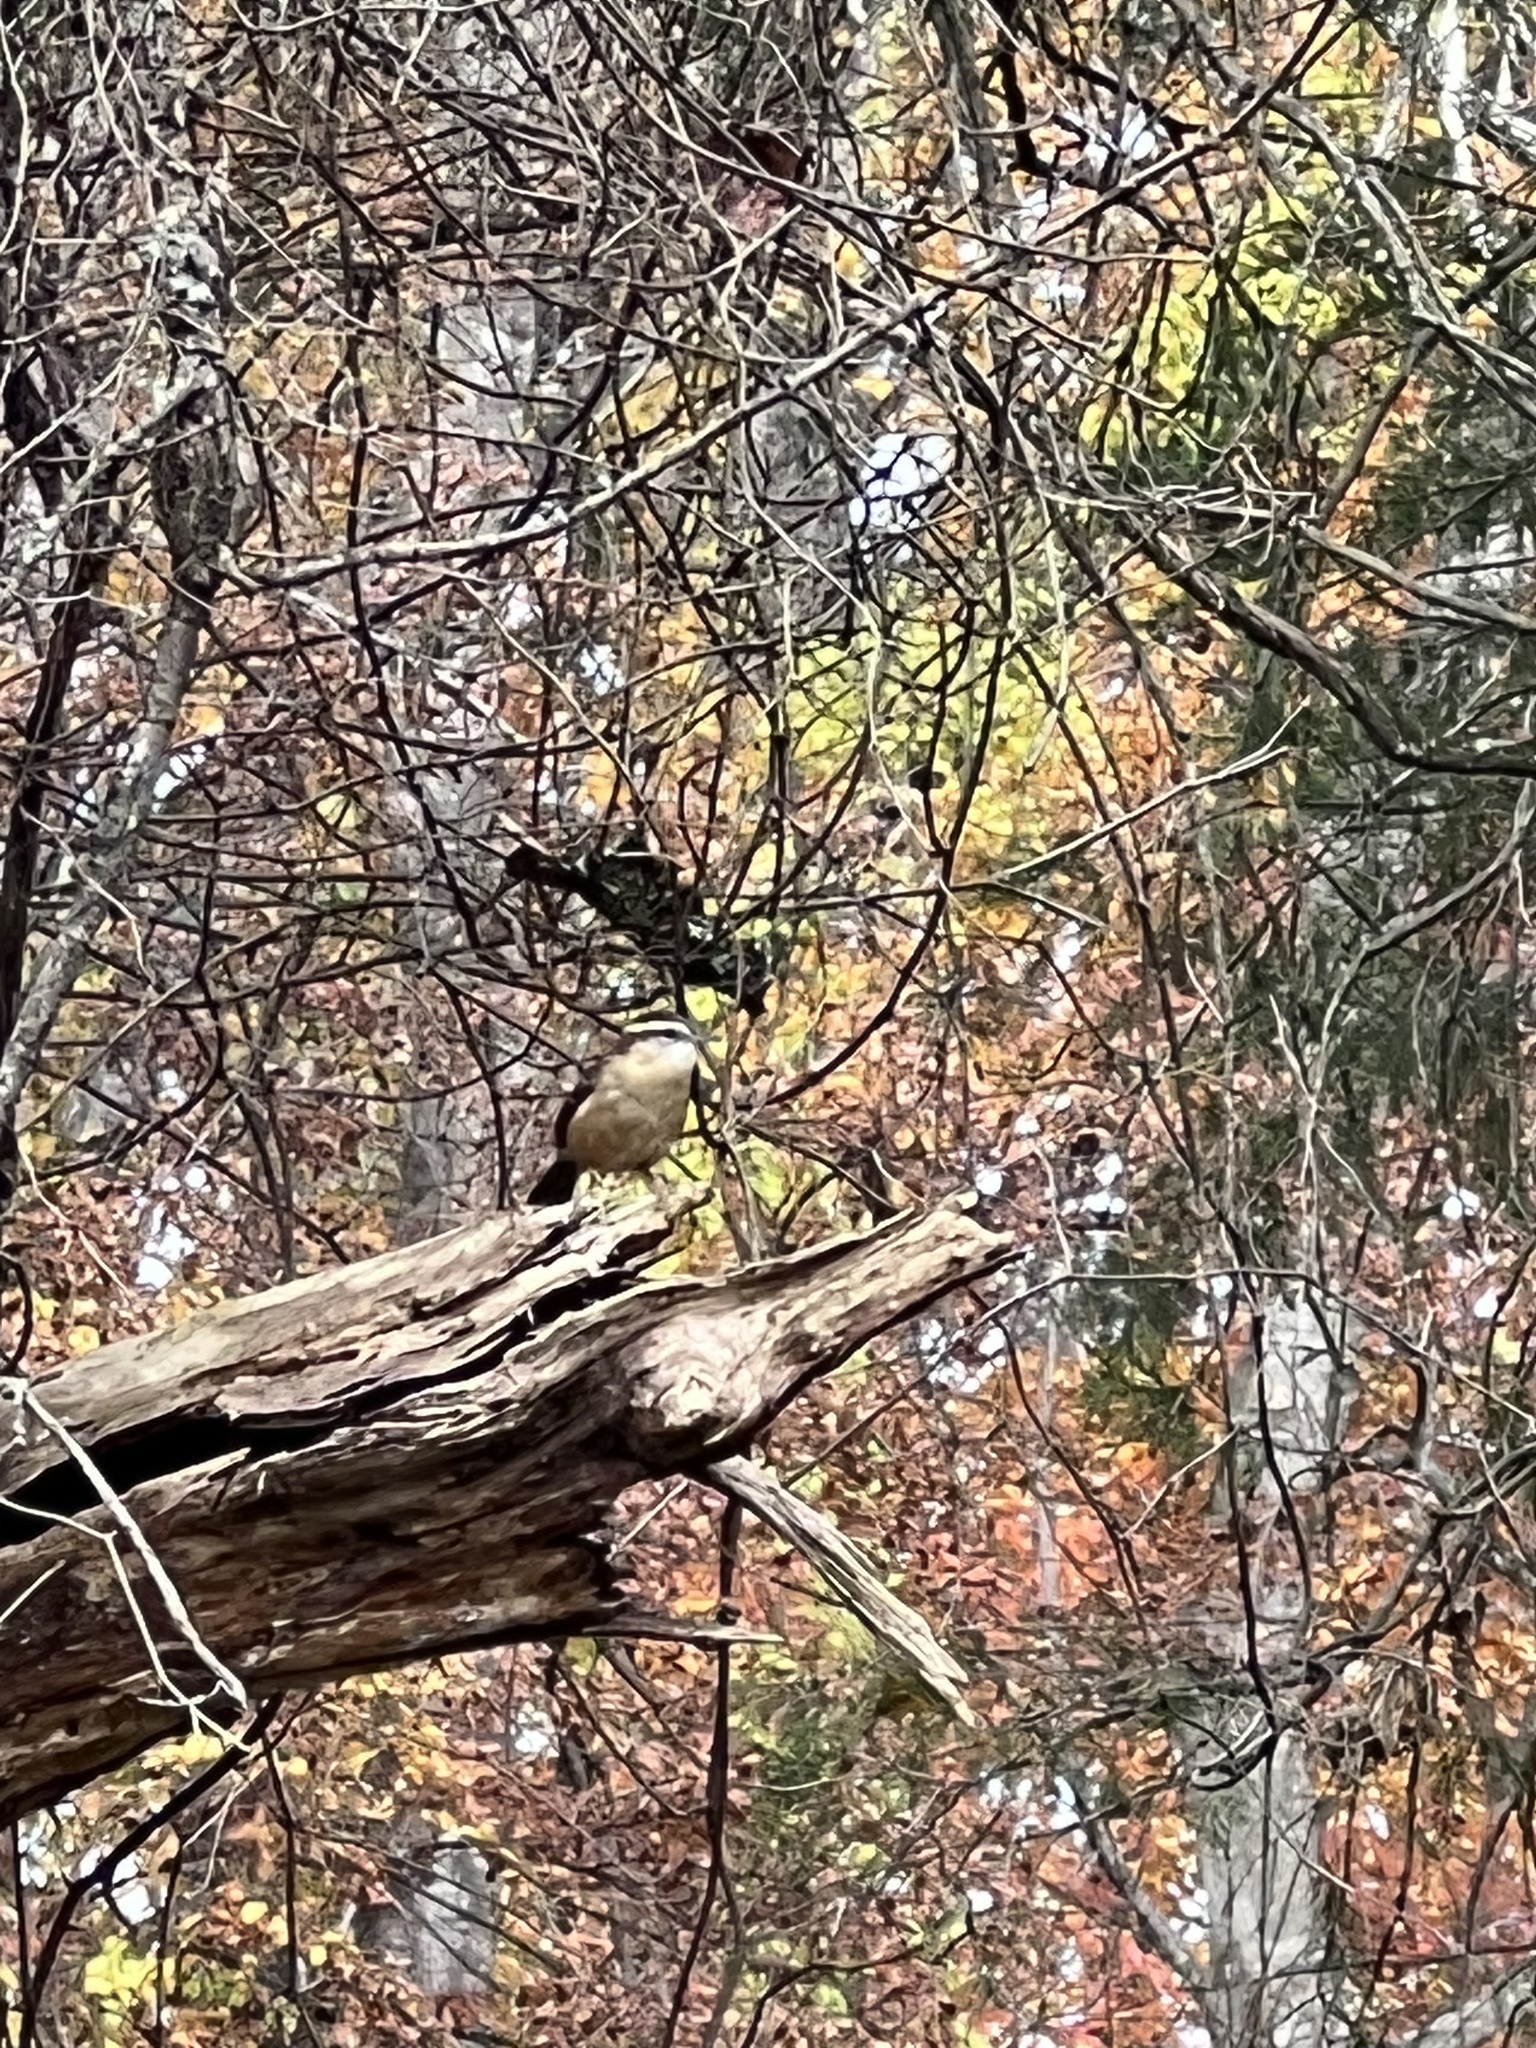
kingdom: Animalia
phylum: Chordata
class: Aves
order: Passeriformes
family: Troglodytidae
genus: Thryothorus
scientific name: Thryothorus ludovicianus
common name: Carolina wren
